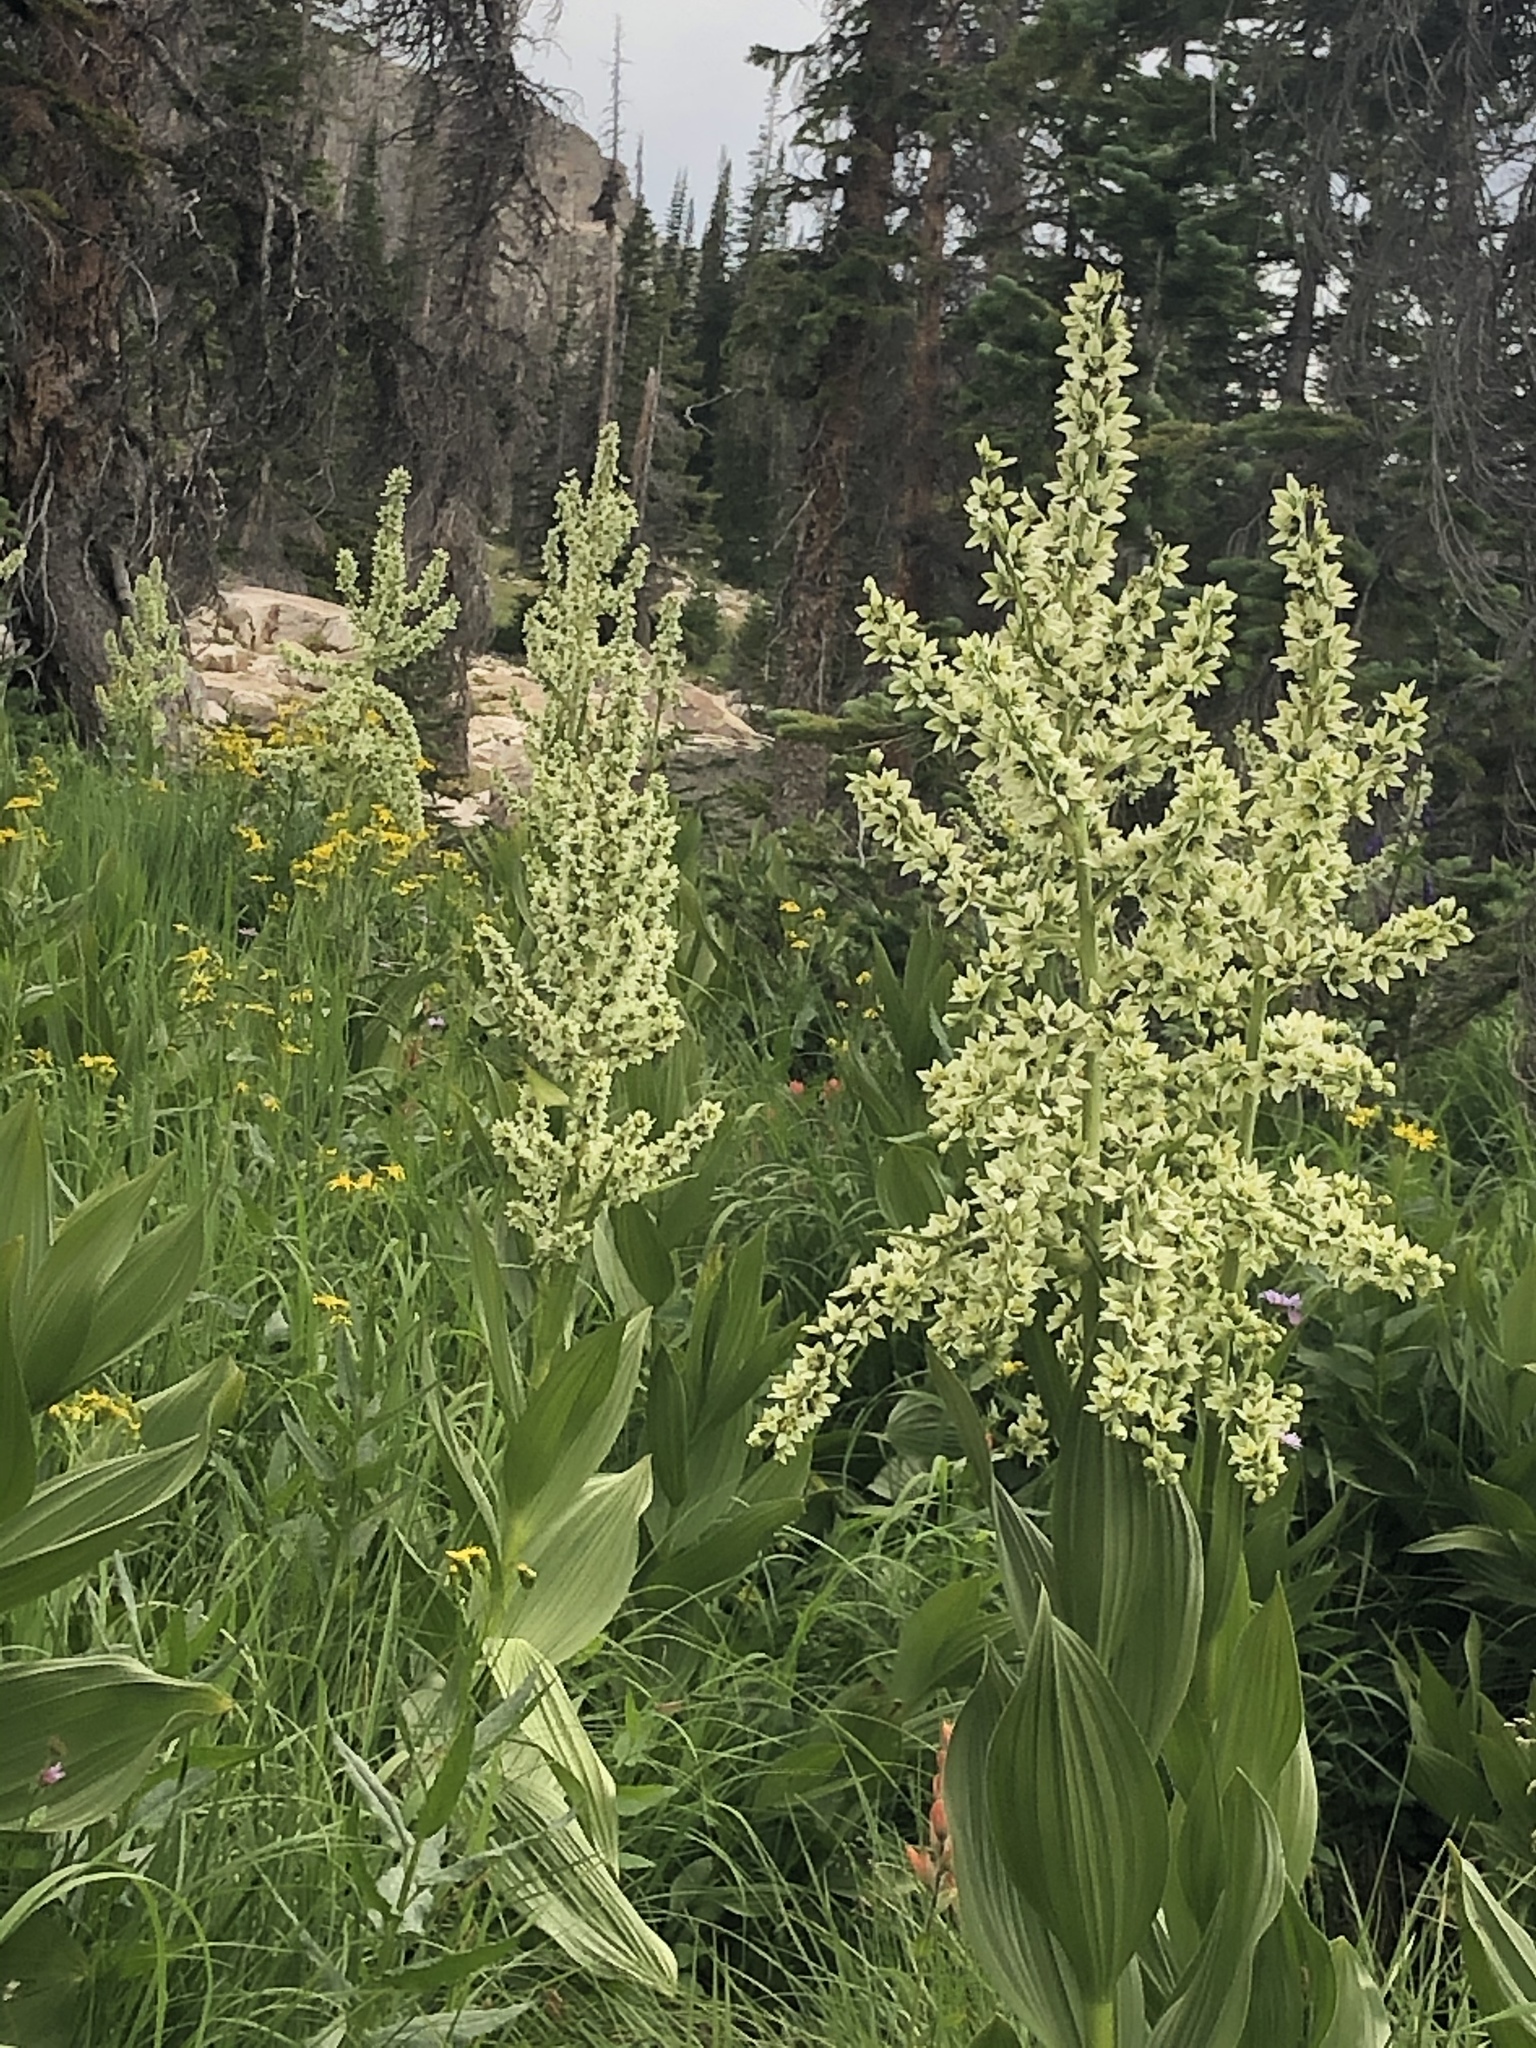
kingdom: Plantae
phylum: Tracheophyta
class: Liliopsida
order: Liliales
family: Melanthiaceae
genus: Veratrum
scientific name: Veratrum californicum
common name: California veratrum
